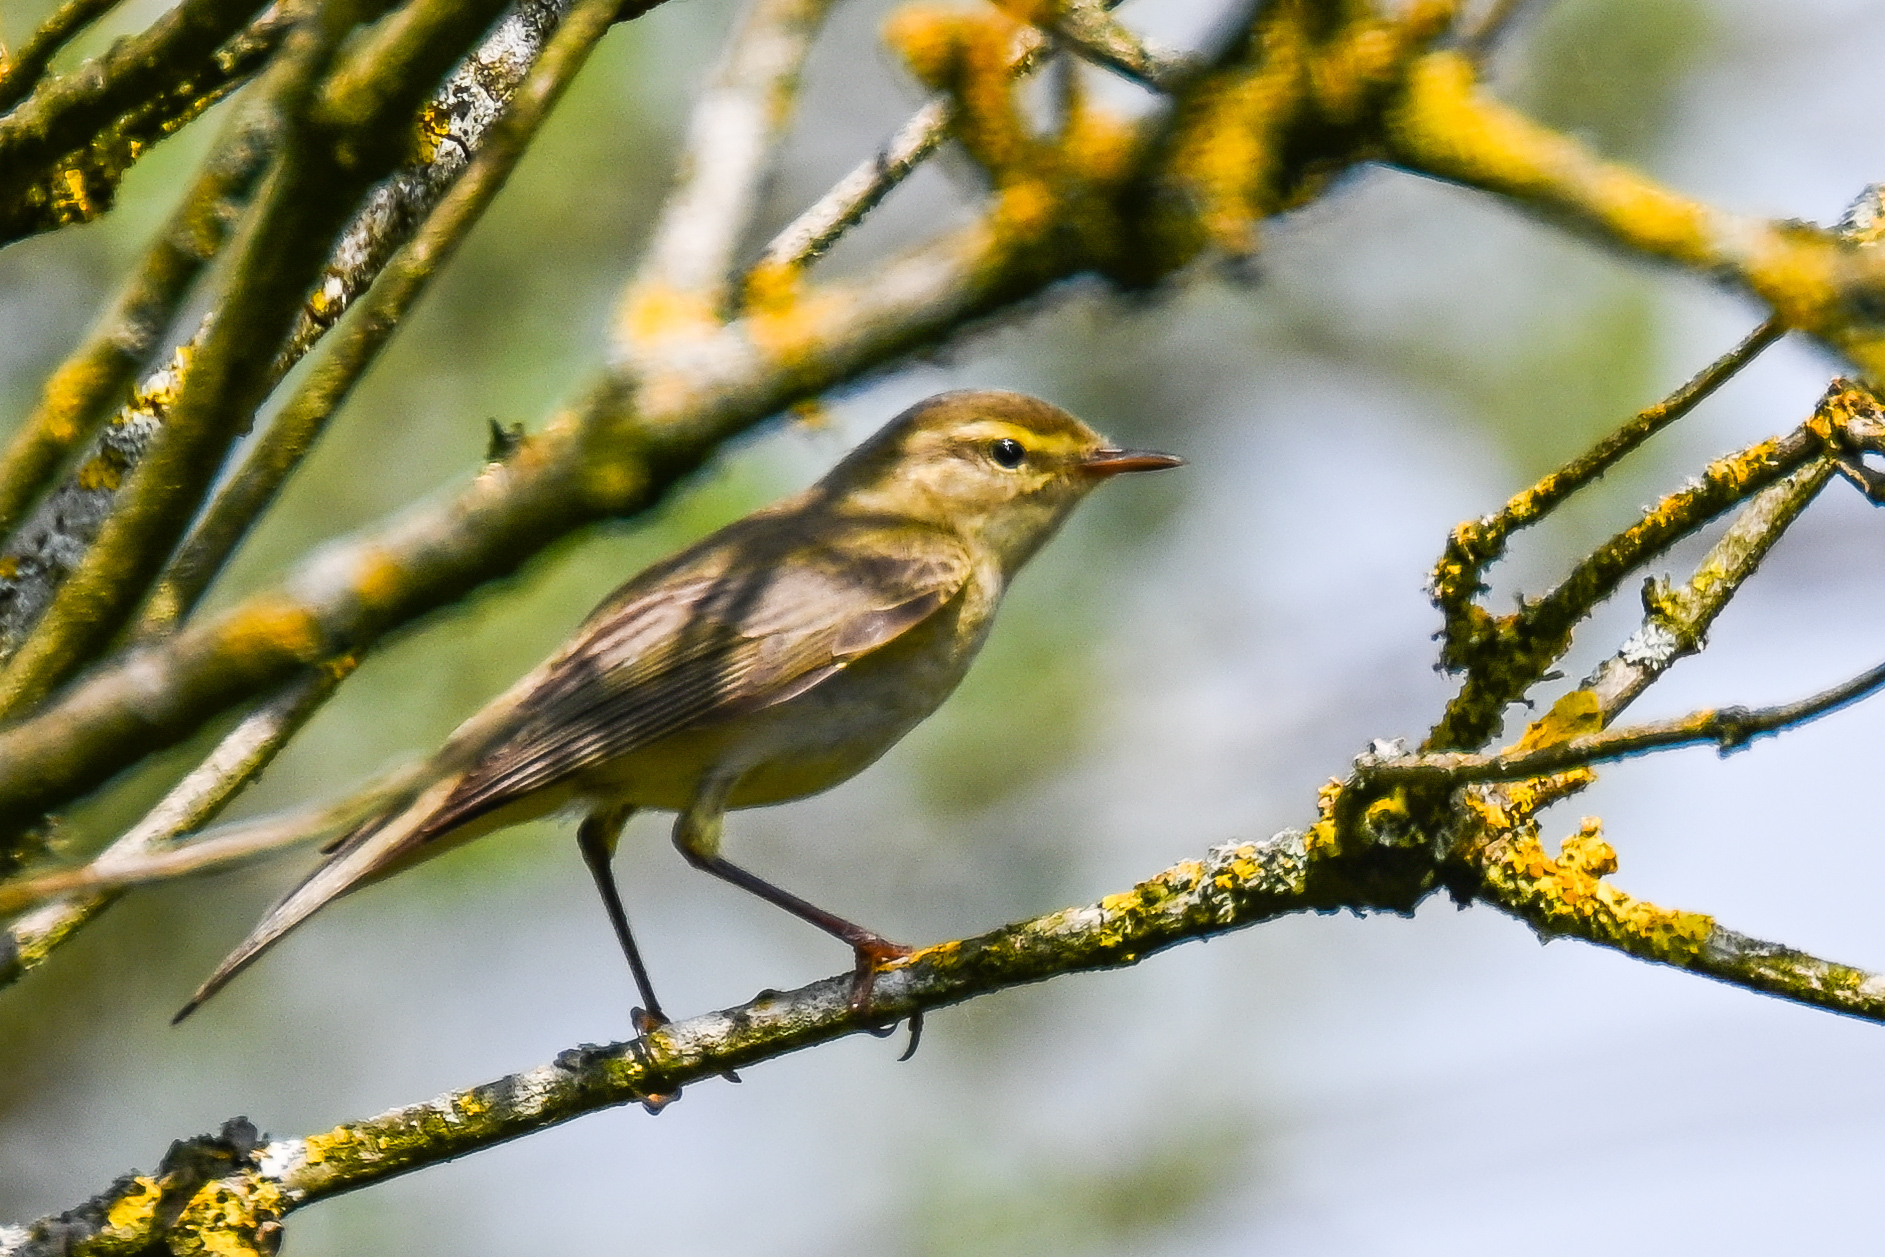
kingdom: Animalia
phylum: Chordata
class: Aves
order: Passeriformes
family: Phylloscopidae
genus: Phylloscopus
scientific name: Phylloscopus trochilus
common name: Willow warbler
